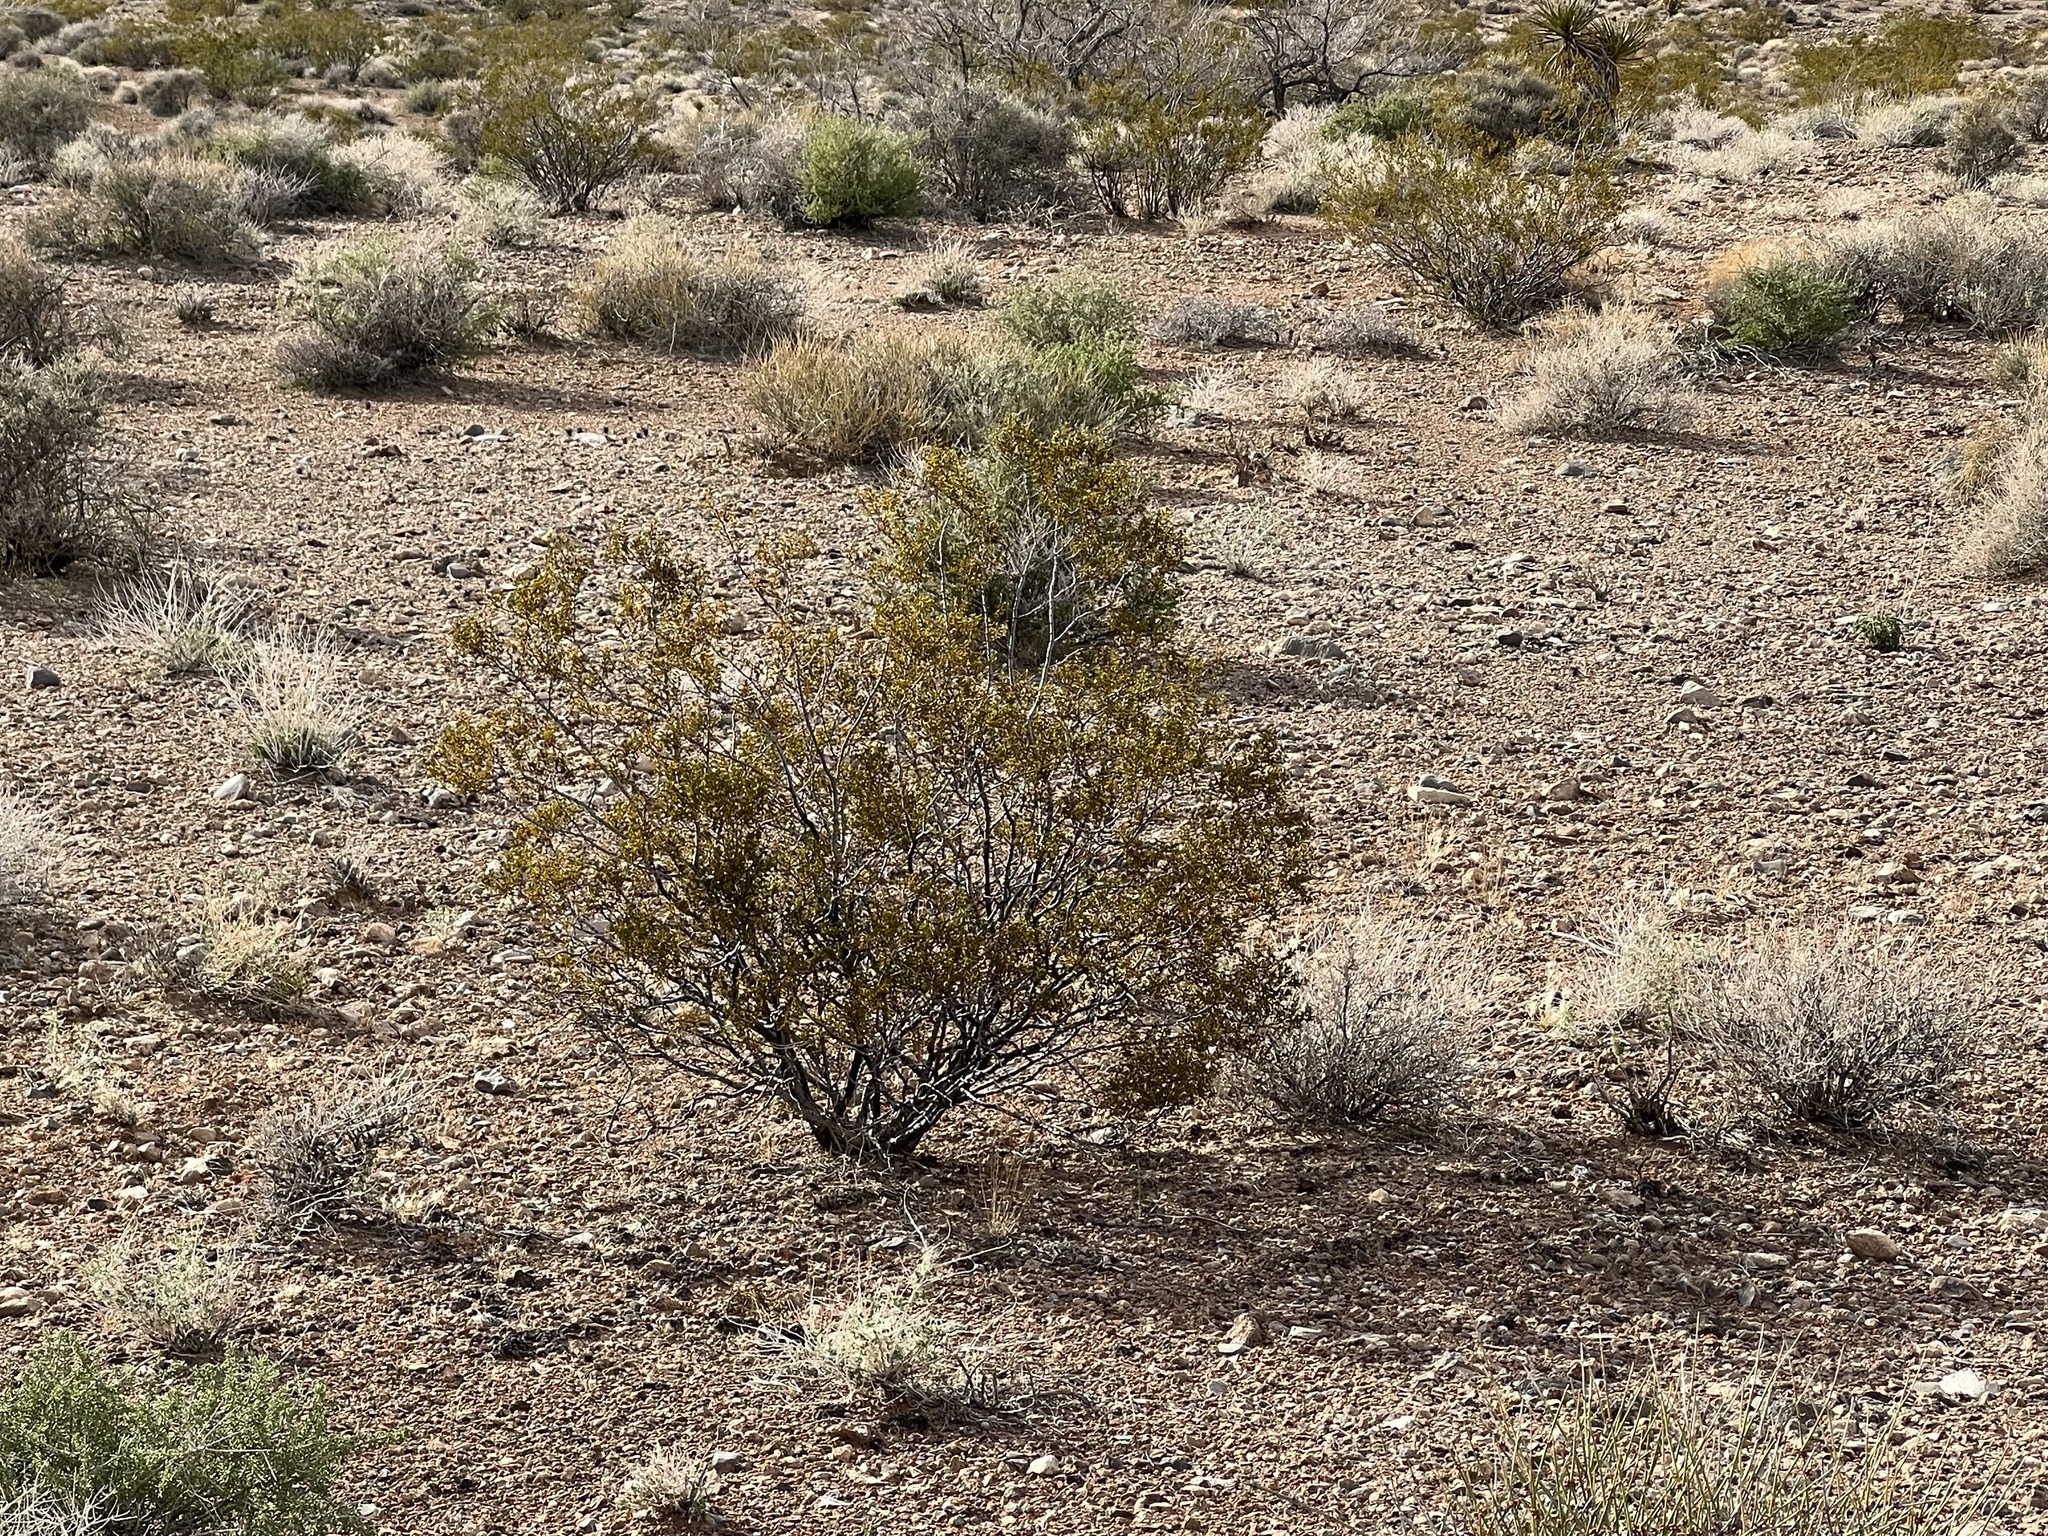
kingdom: Plantae
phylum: Tracheophyta
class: Magnoliopsida
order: Zygophyllales
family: Zygophyllaceae
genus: Larrea
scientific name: Larrea tridentata
